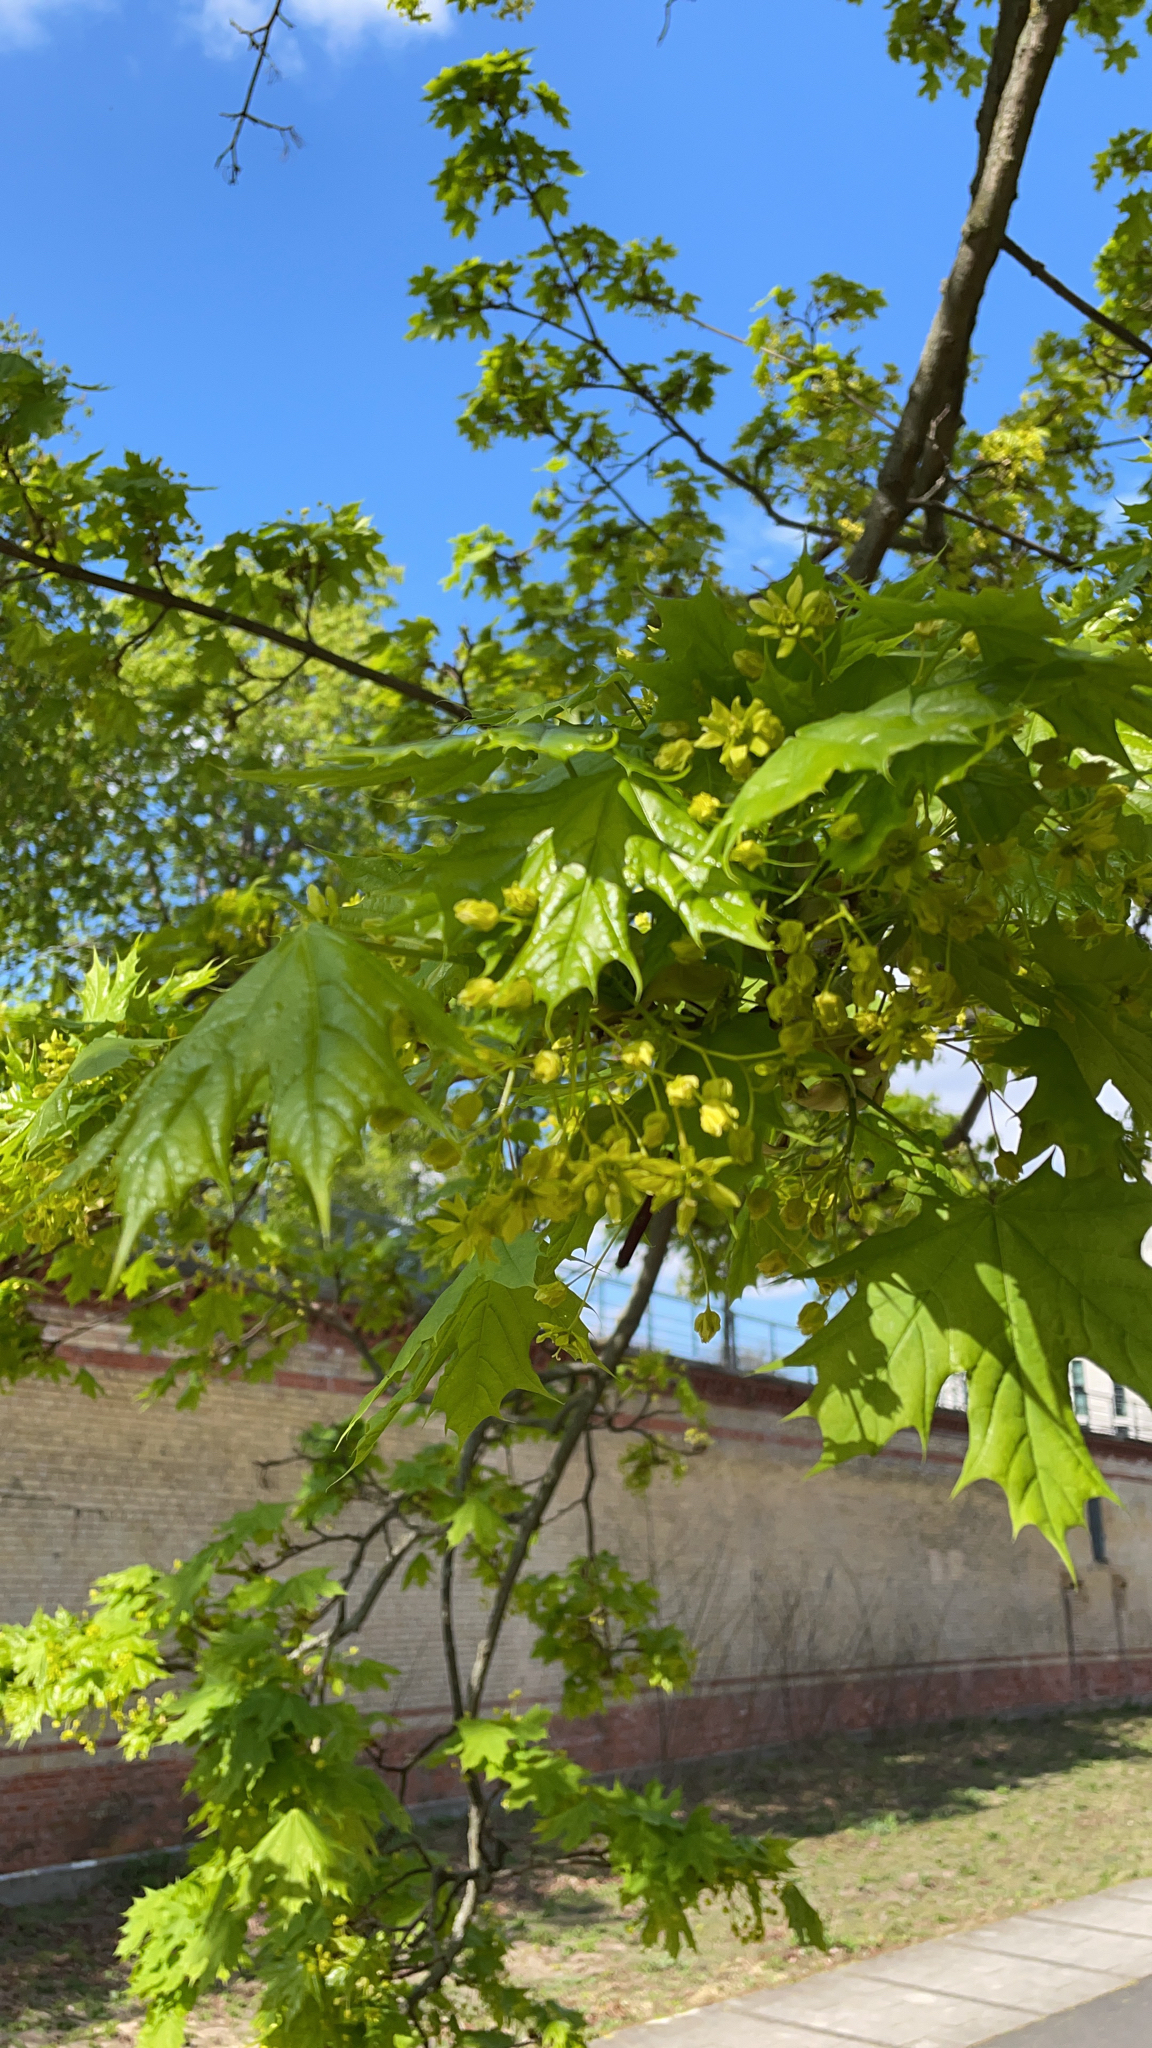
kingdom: Plantae
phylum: Tracheophyta
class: Magnoliopsida
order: Sapindales
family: Sapindaceae
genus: Acer
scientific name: Acer platanoides
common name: Norway maple
